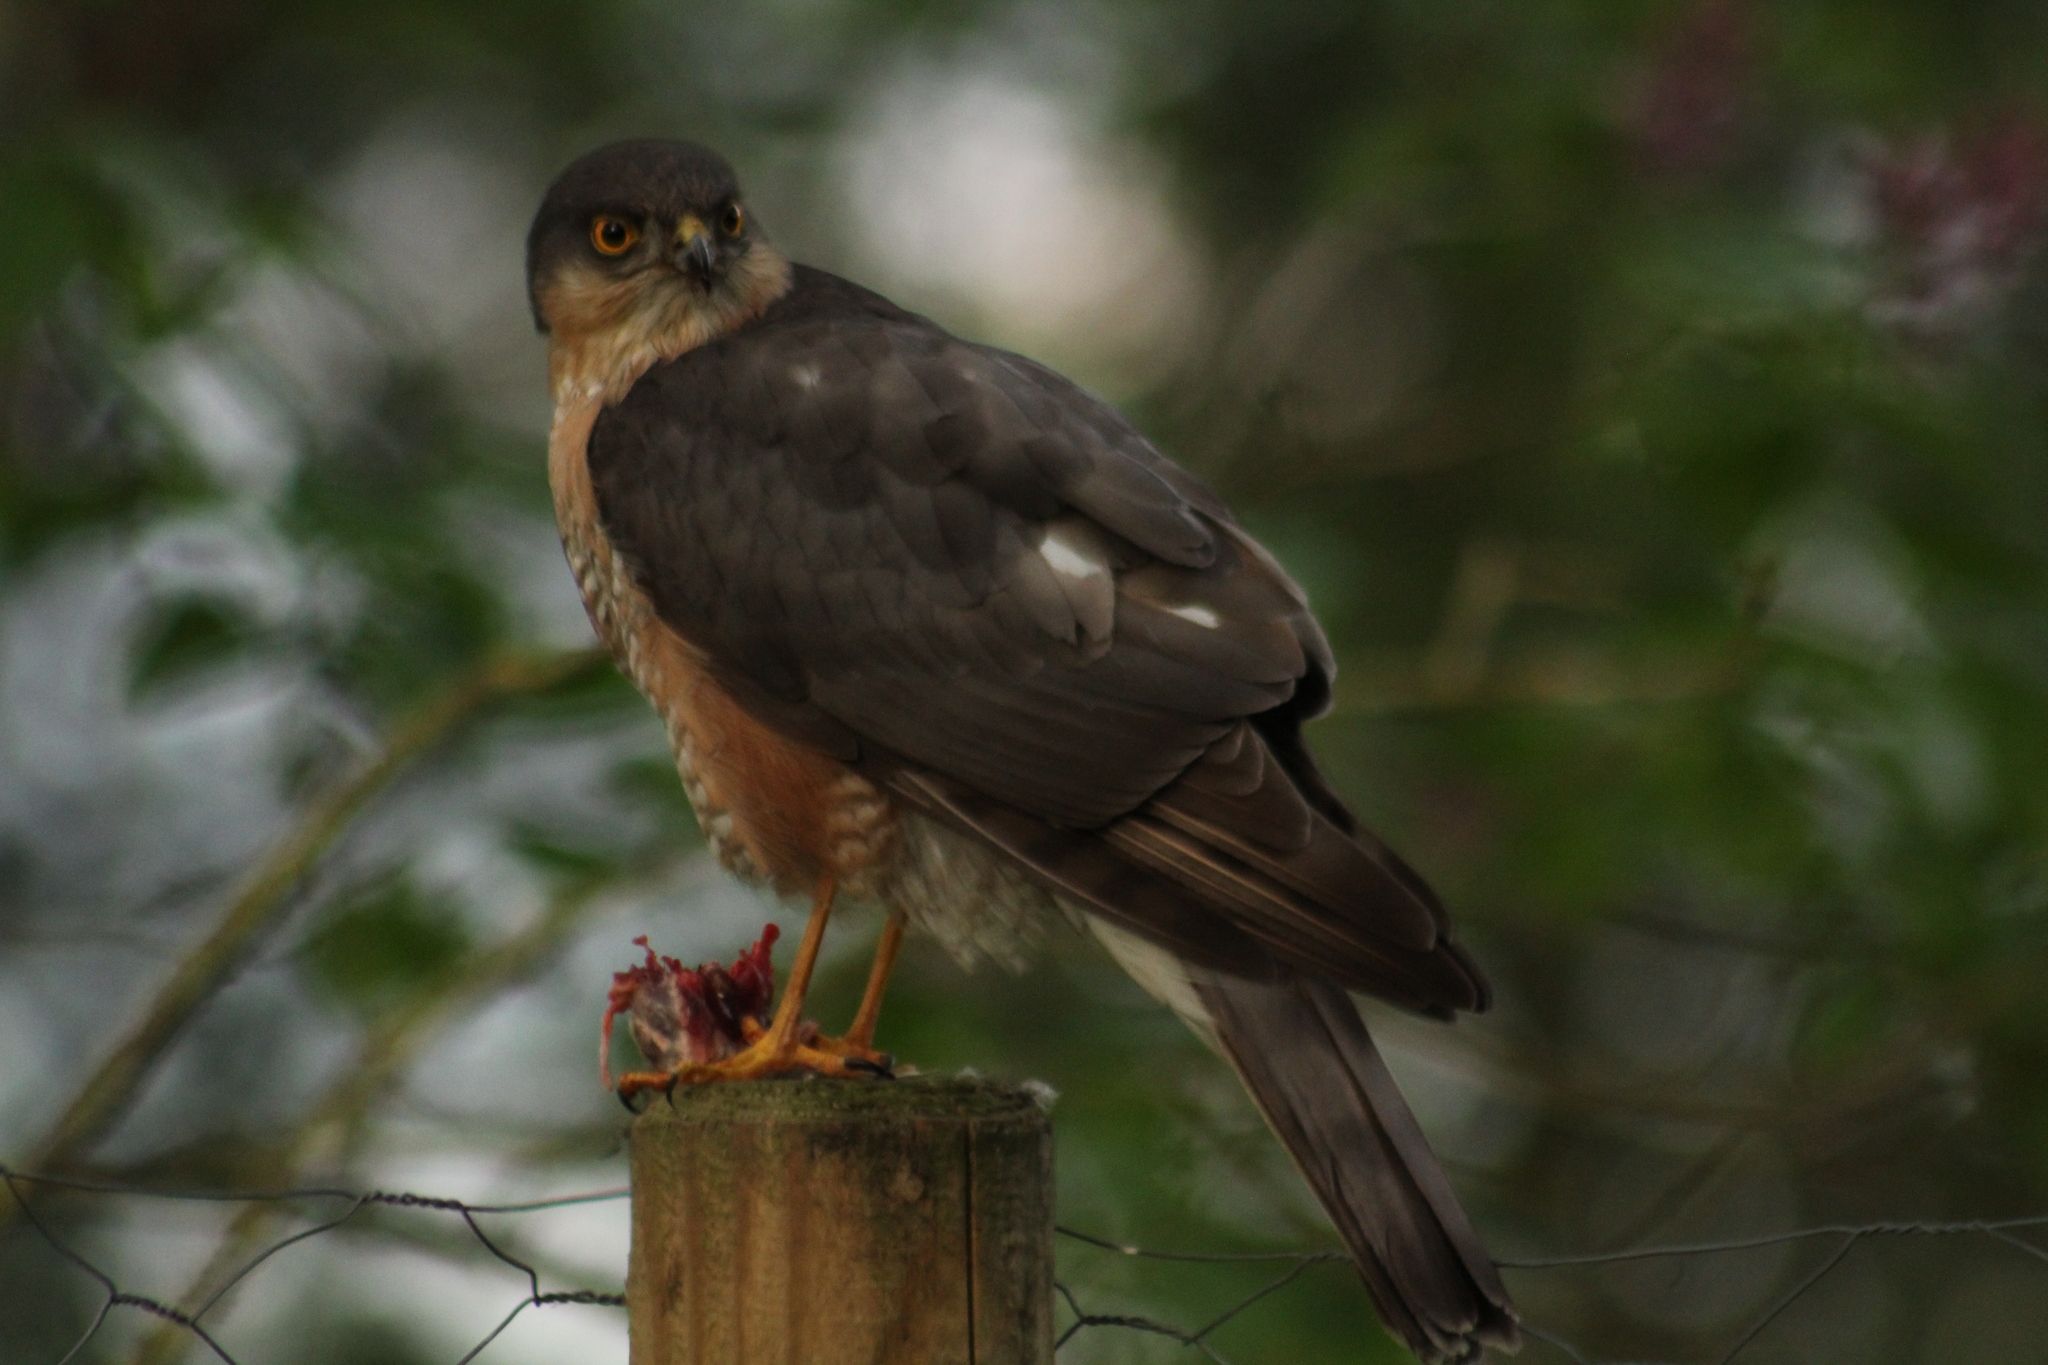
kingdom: Animalia
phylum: Chordata
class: Aves
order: Accipitriformes
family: Accipitridae
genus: Accipiter
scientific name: Accipiter nisus
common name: Eurasian sparrowhawk
